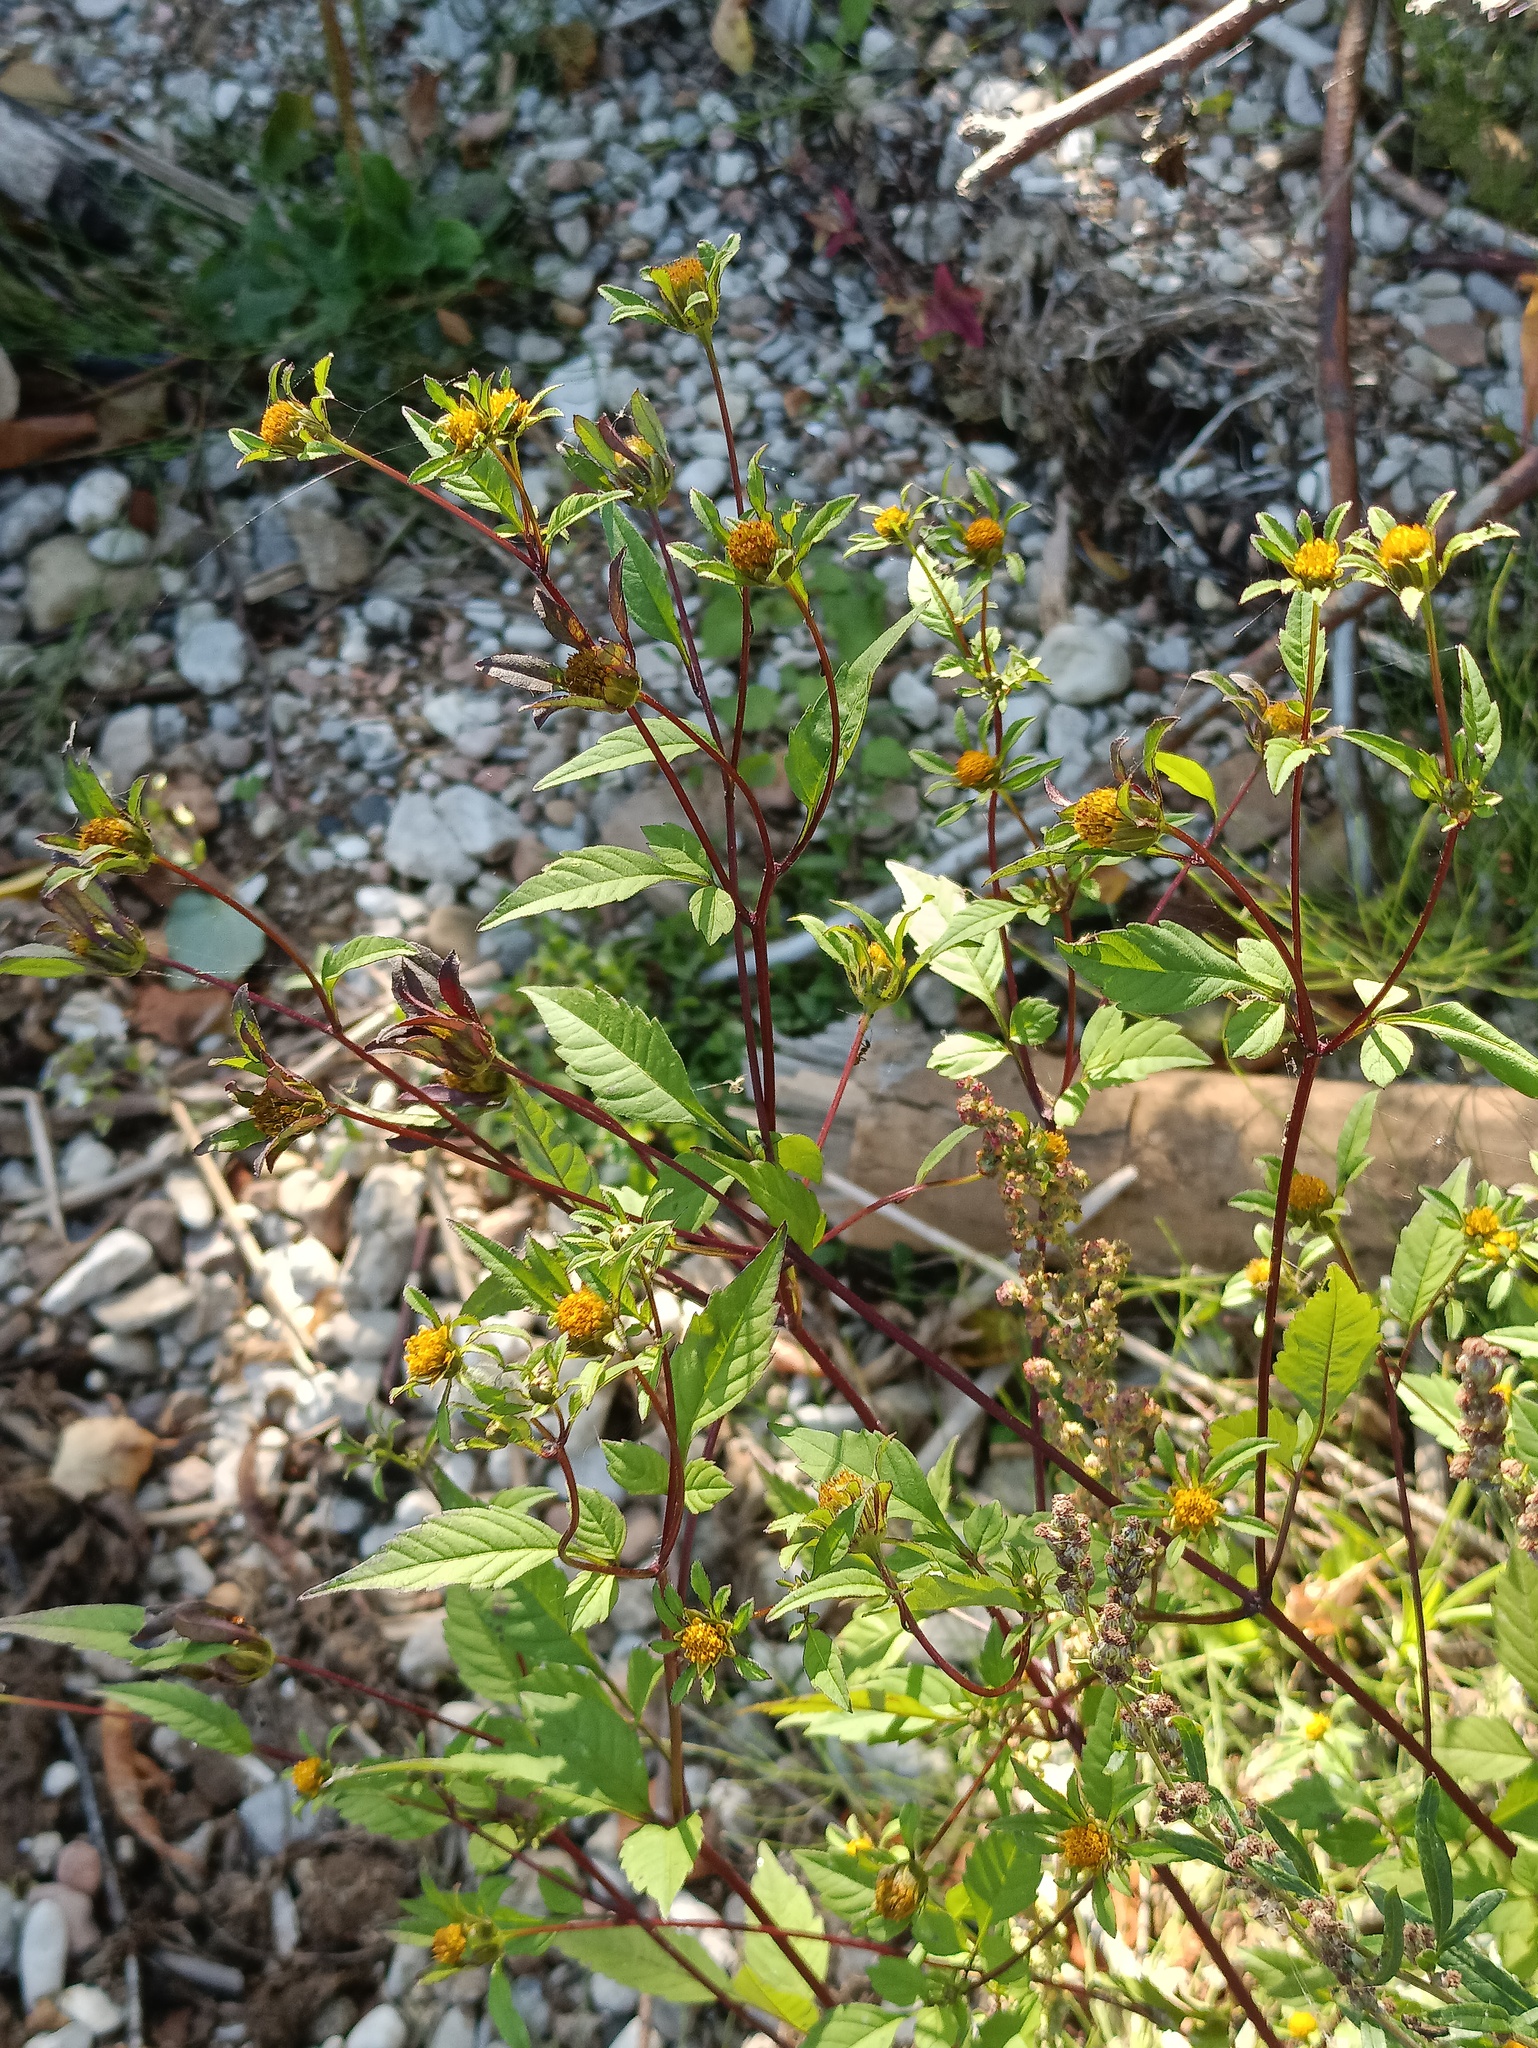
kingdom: Plantae
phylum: Tracheophyta
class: Magnoliopsida
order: Asterales
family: Asteraceae
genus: Bidens
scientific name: Bidens frondosa
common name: Beggarticks
